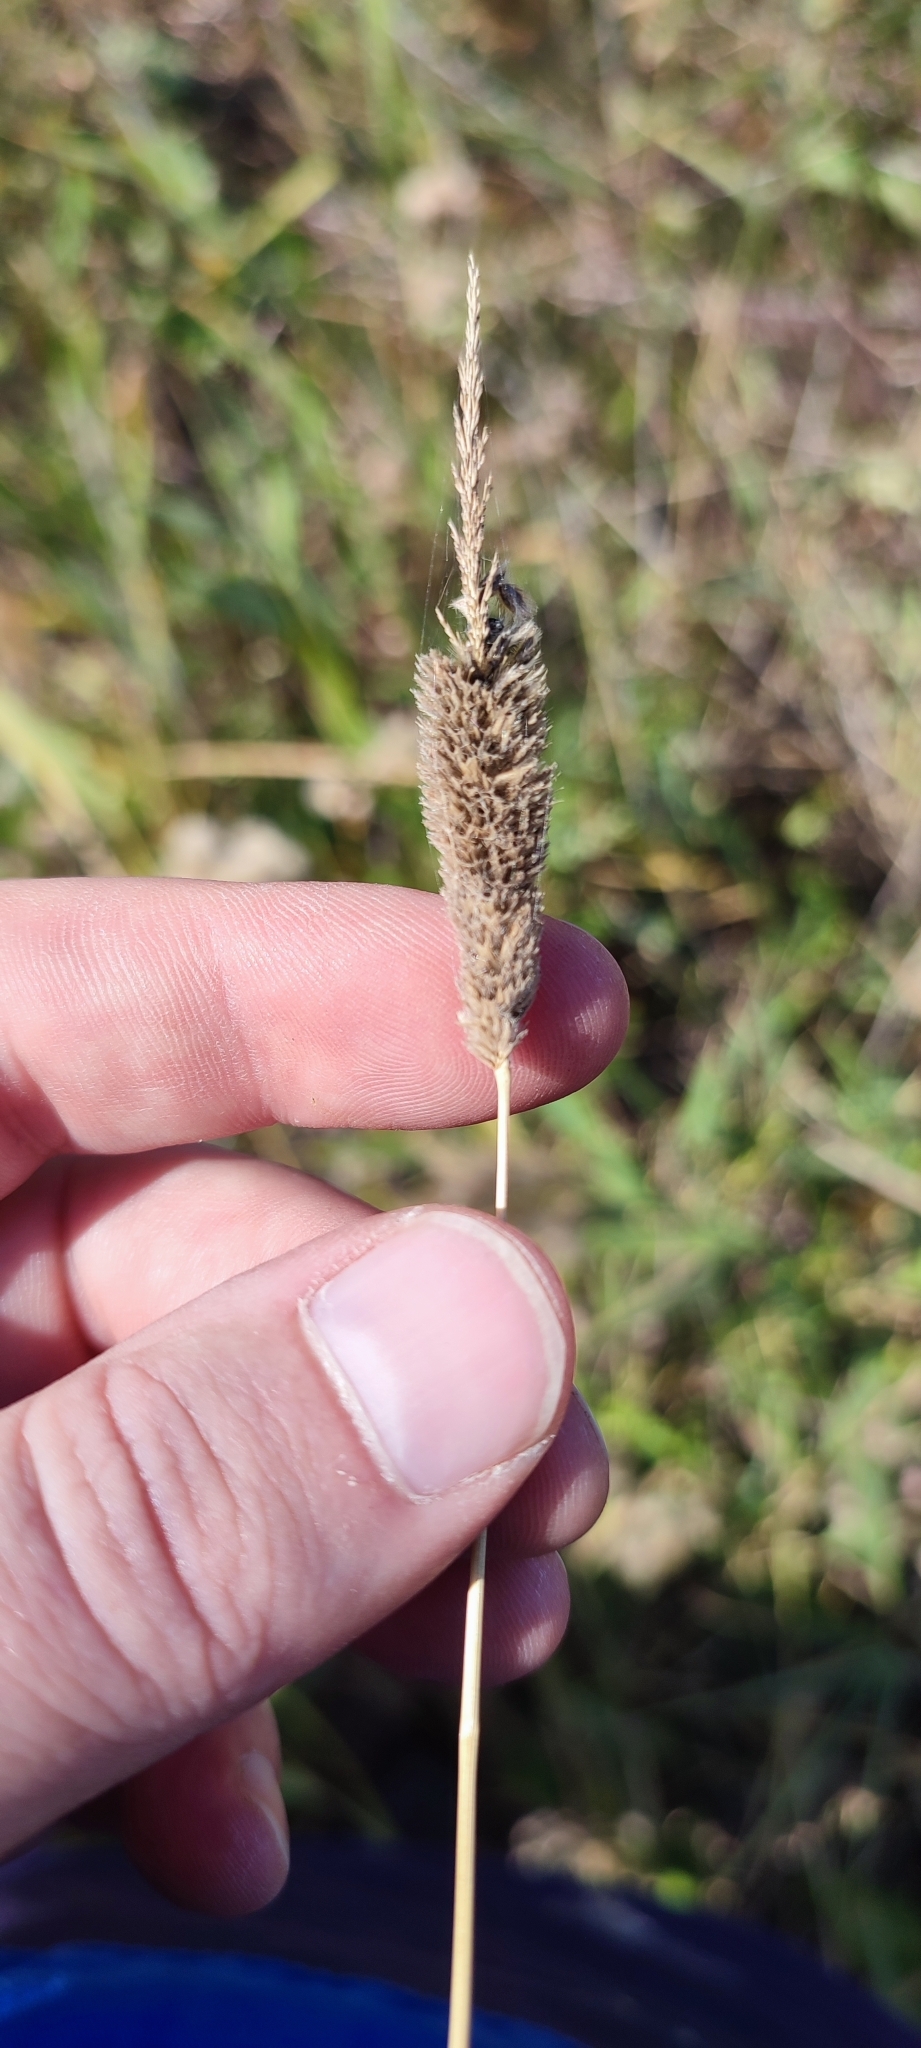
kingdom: Plantae
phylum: Tracheophyta
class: Liliopsida
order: Poales
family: Poaceae
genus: Alopecurus
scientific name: Alopecurus arundinaceus
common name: Creeping meadow foxtail
